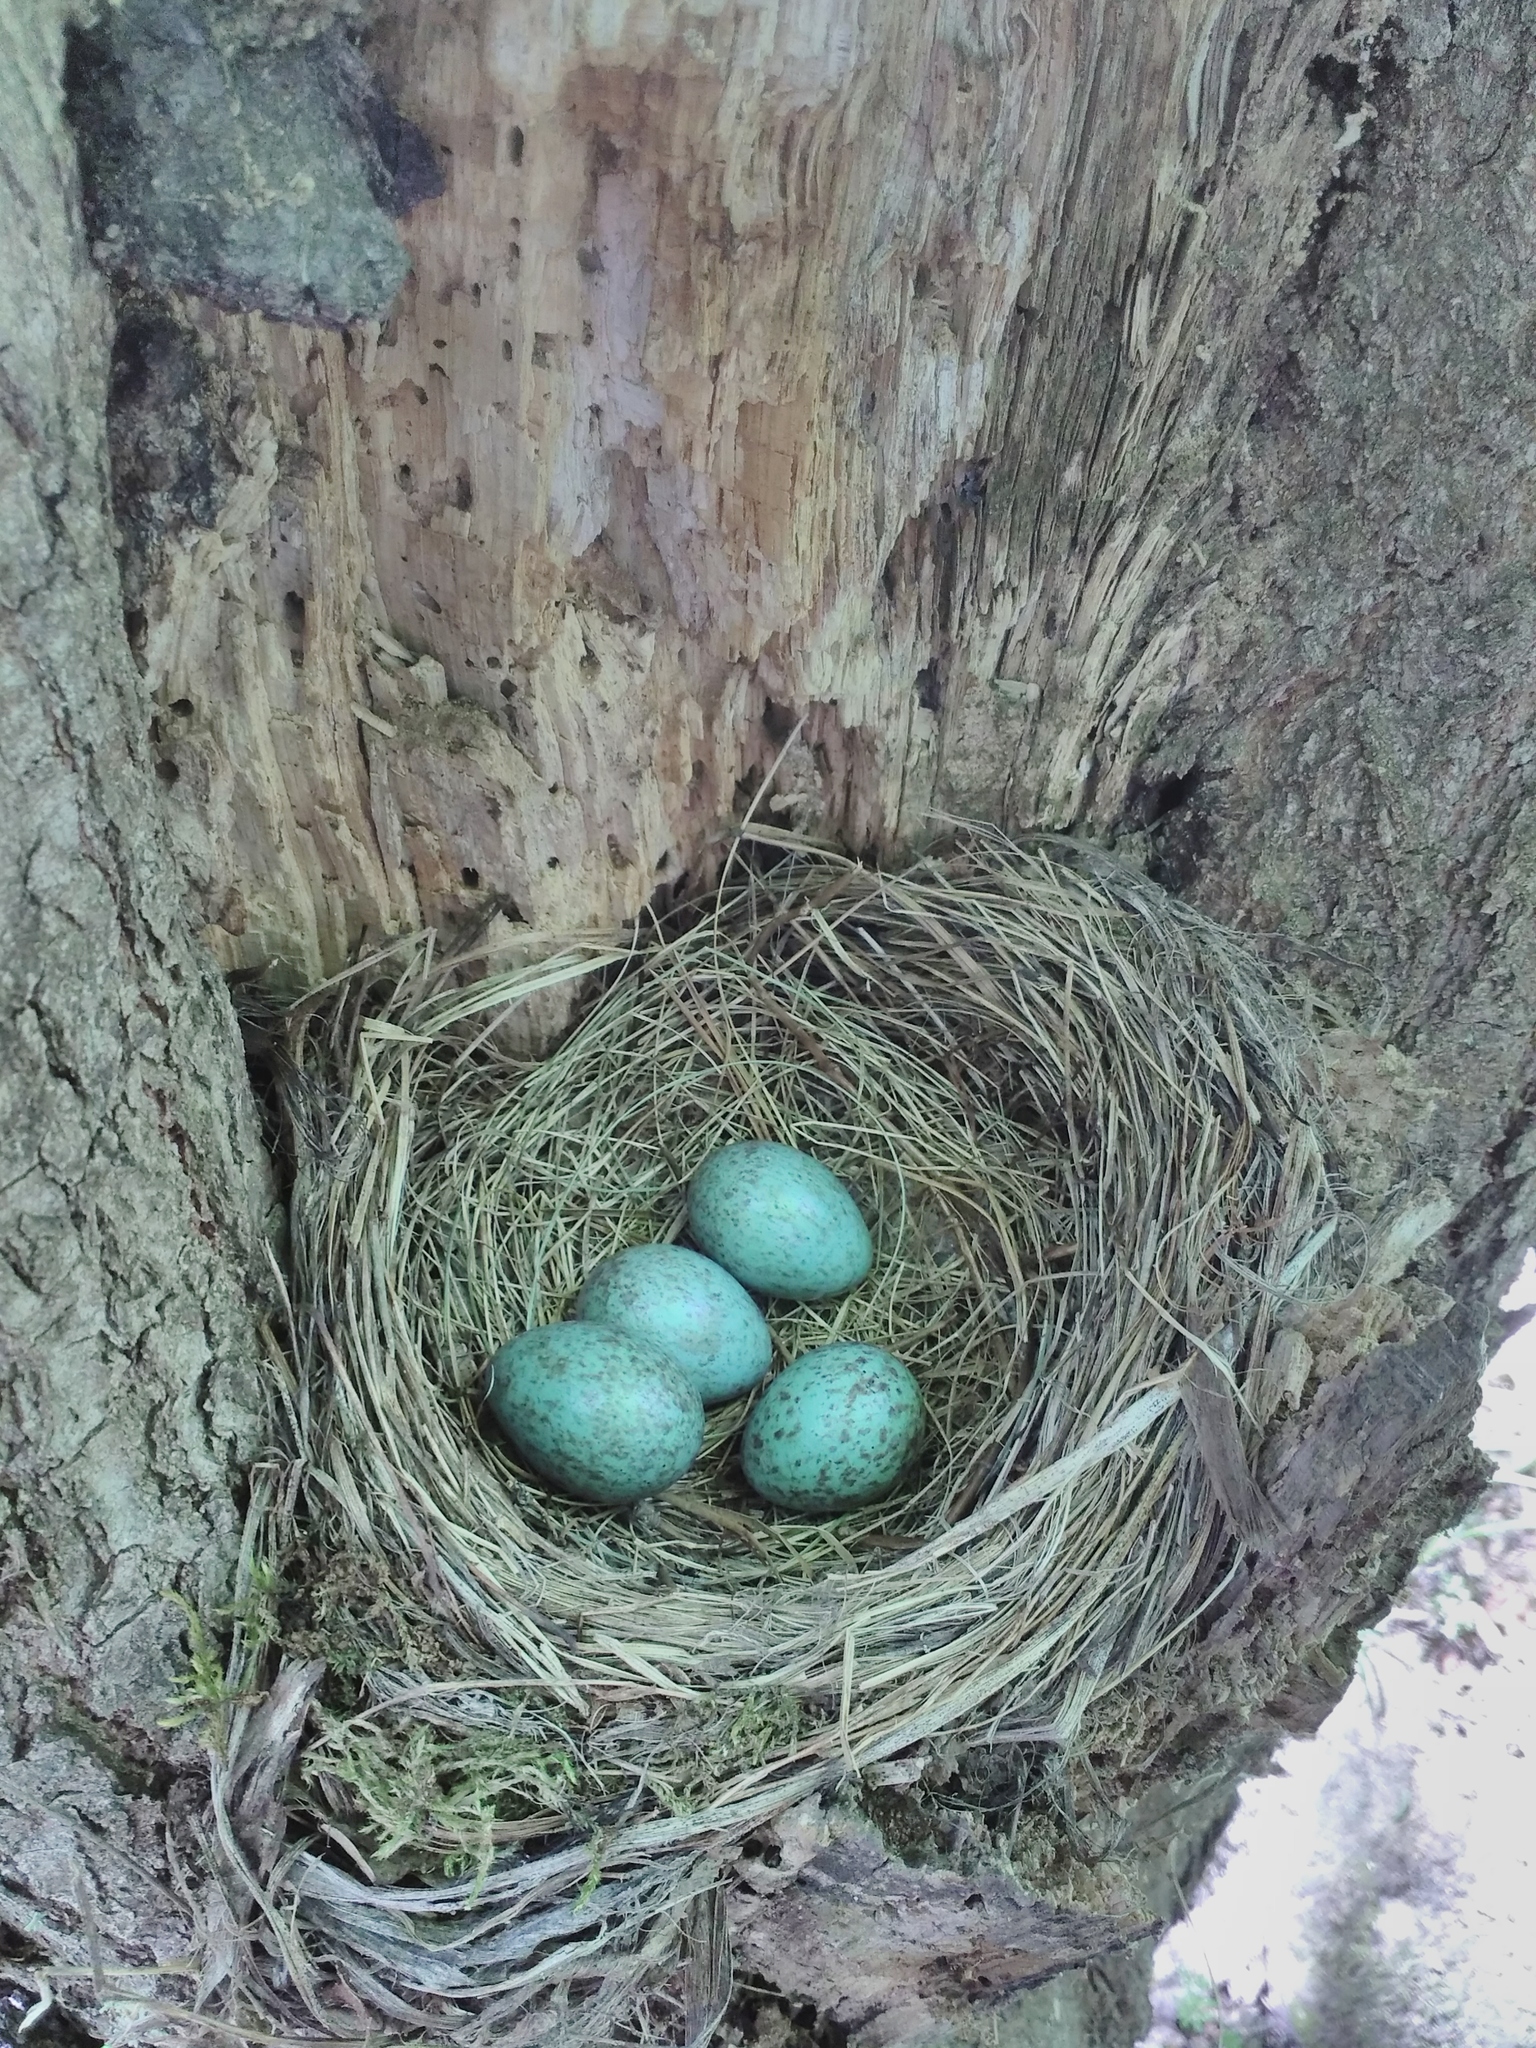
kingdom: Animalia
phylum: Chordata
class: Aves
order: Passeriformes
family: Turdidae
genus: Turdus
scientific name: Turdus merula
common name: Common blackbird
